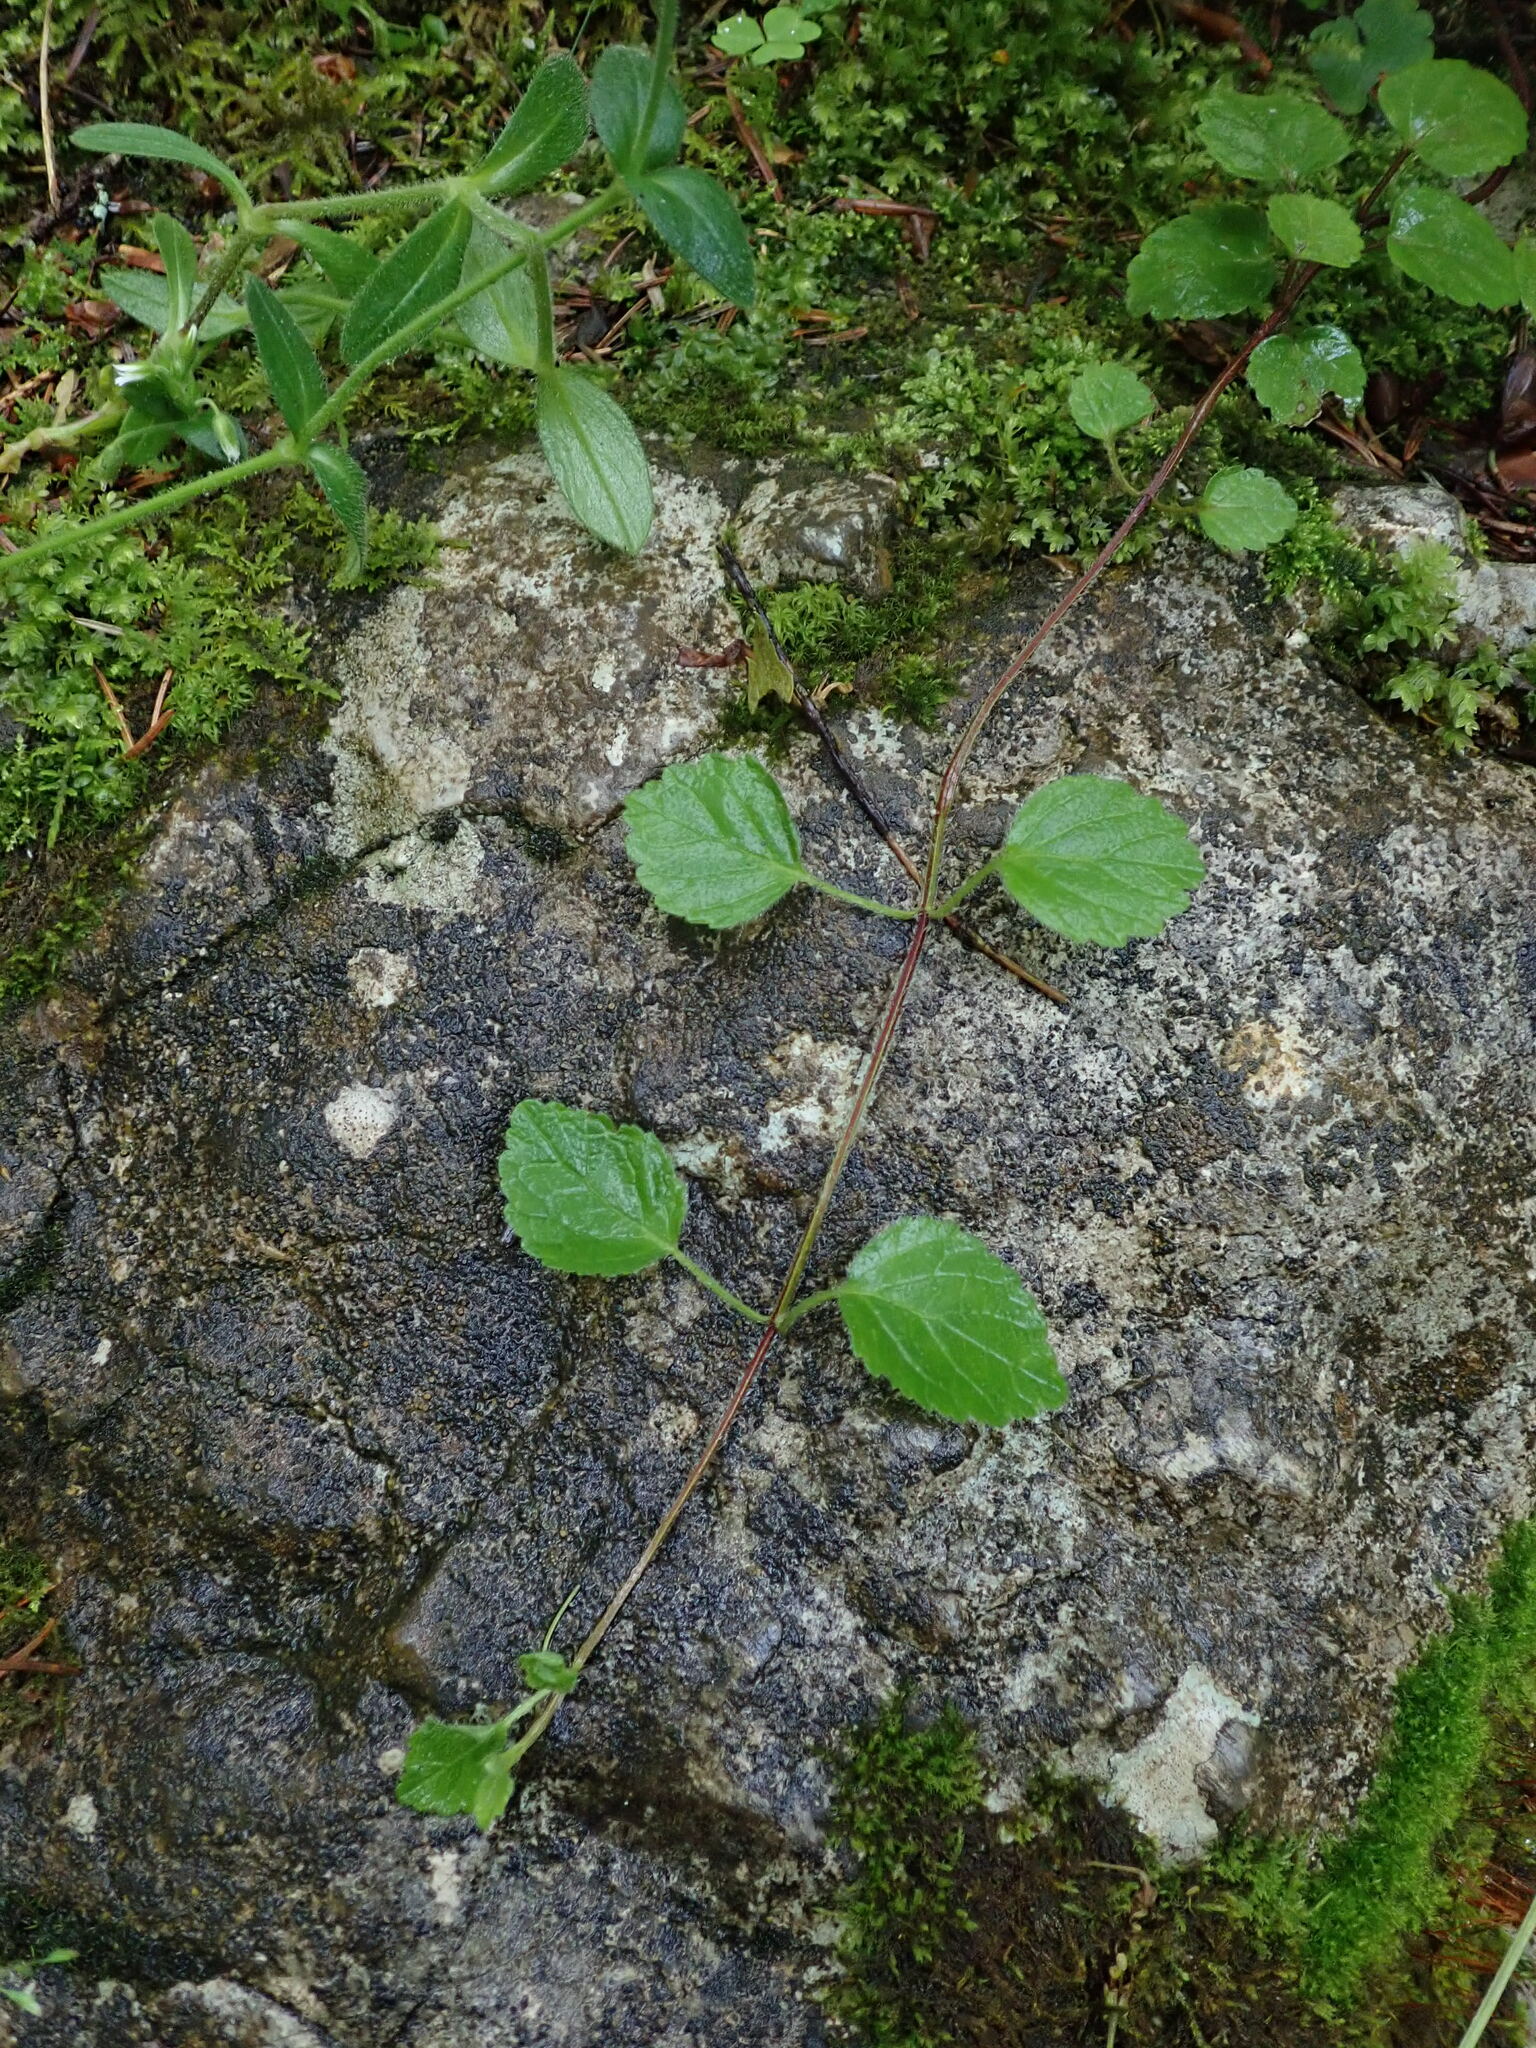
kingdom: Plantae
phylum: Tracheophyta
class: Magnoliopsida
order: Lamiales
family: Lamiaceae
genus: Lamium
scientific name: Lamium galeobdolon
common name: Yellow archangel
